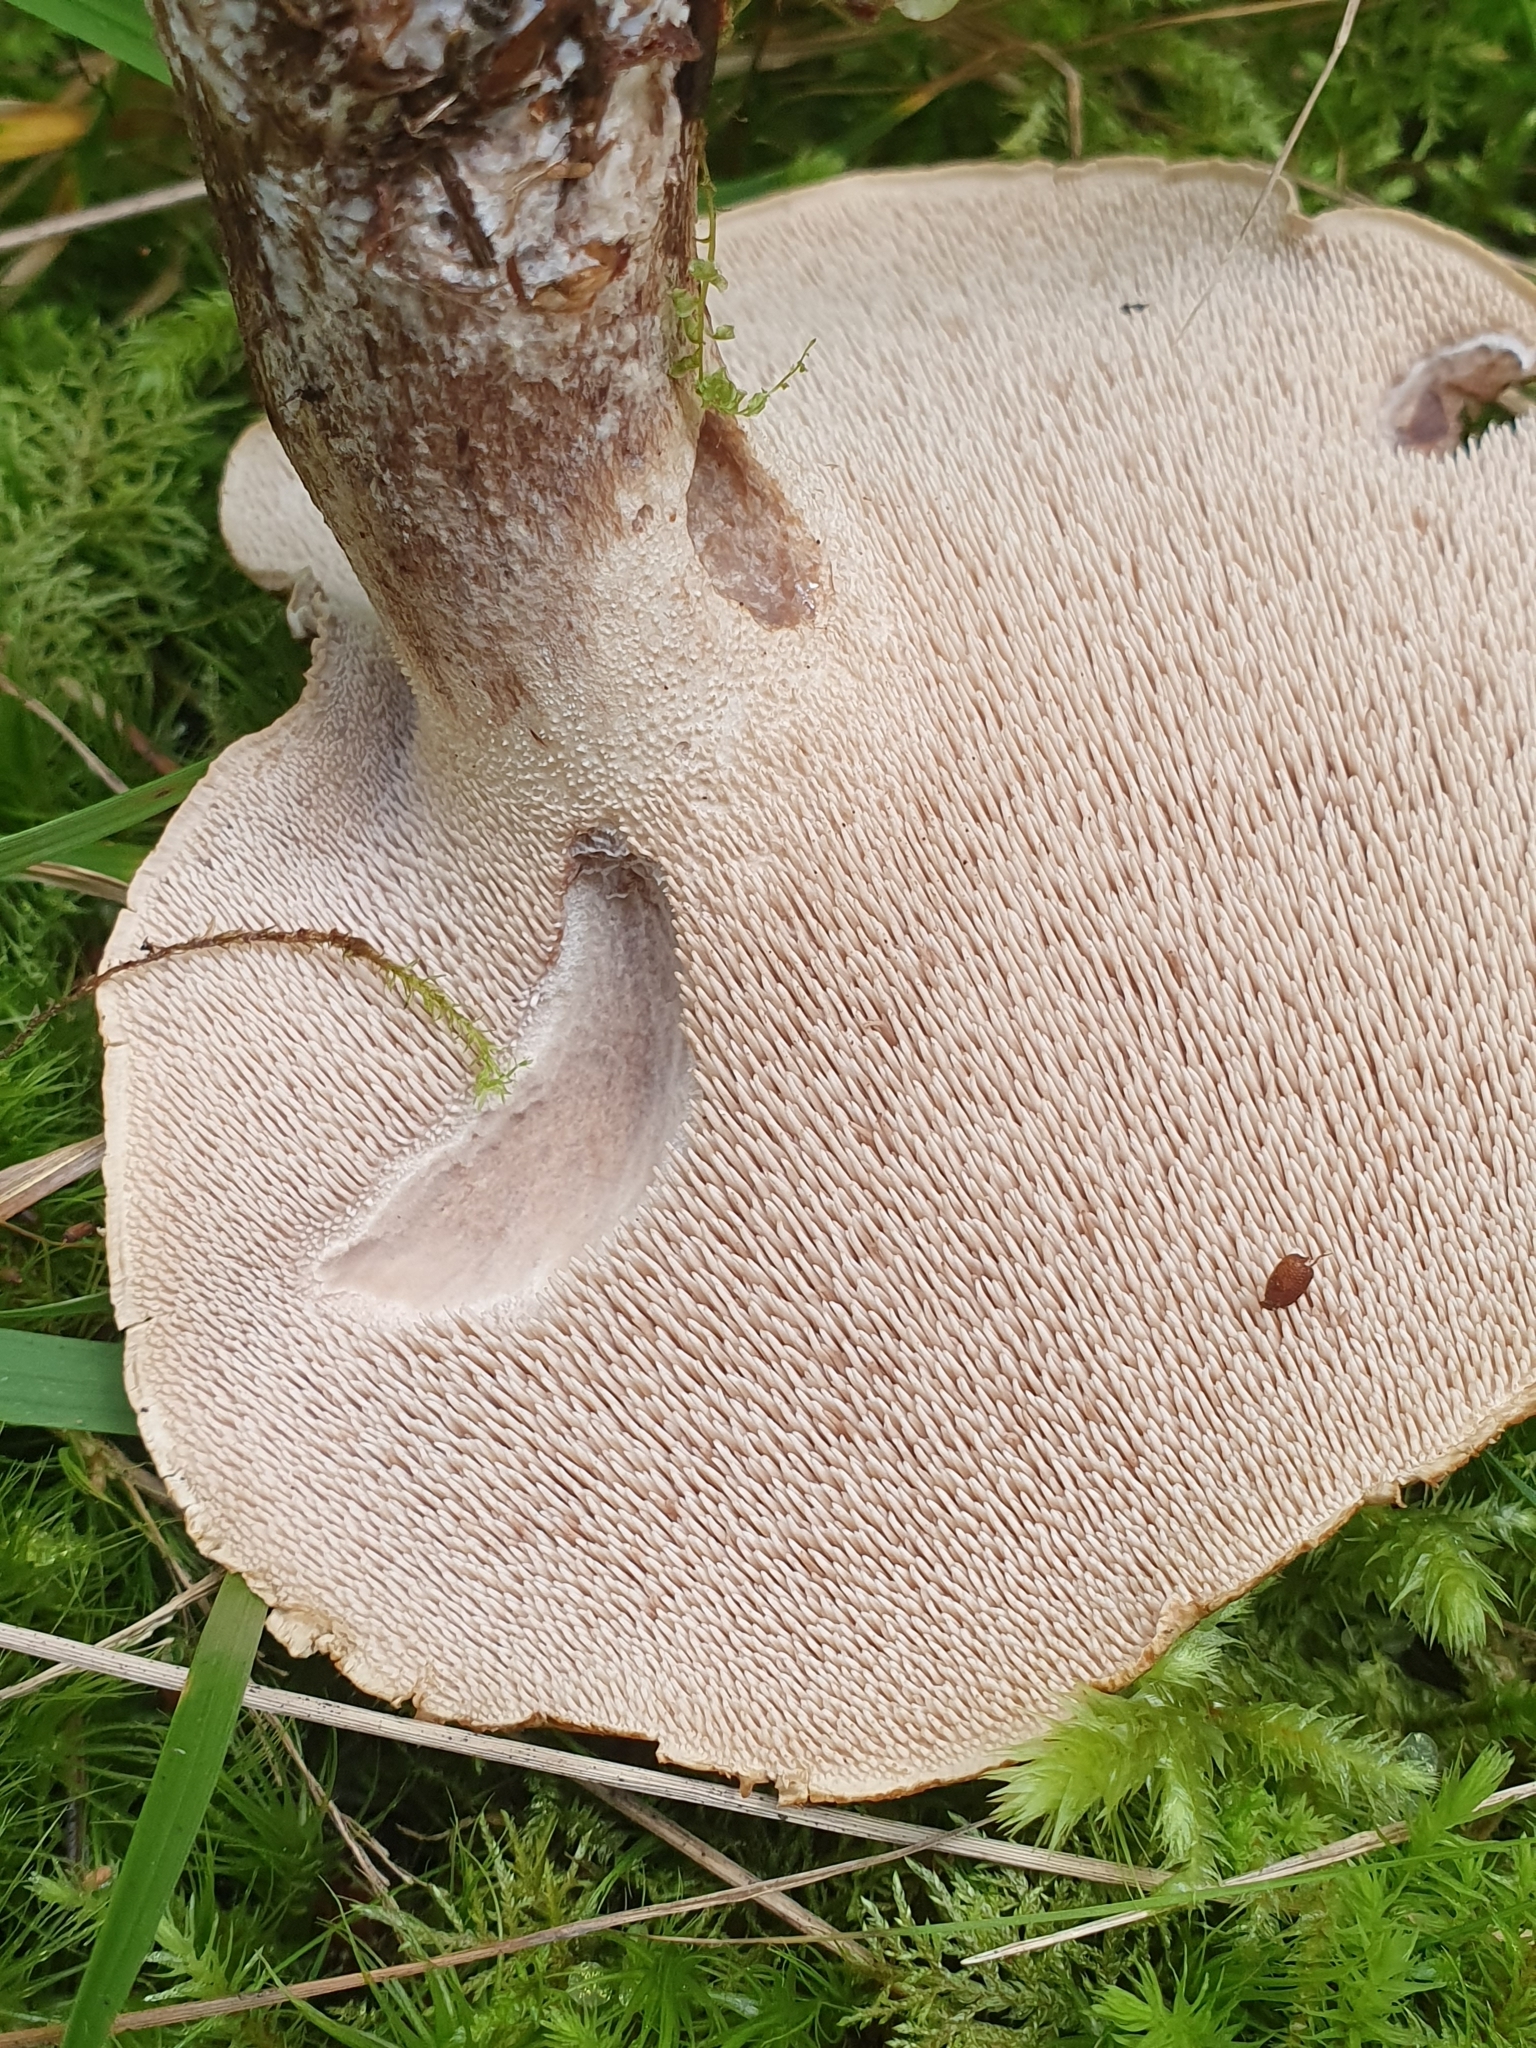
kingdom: Fungi
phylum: Basidiomycota
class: Agaricomycetes
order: Thelephorales
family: Bankeraceae
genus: Sarcodon
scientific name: Sarcodon imbricatus
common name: Shingled hedgehog
